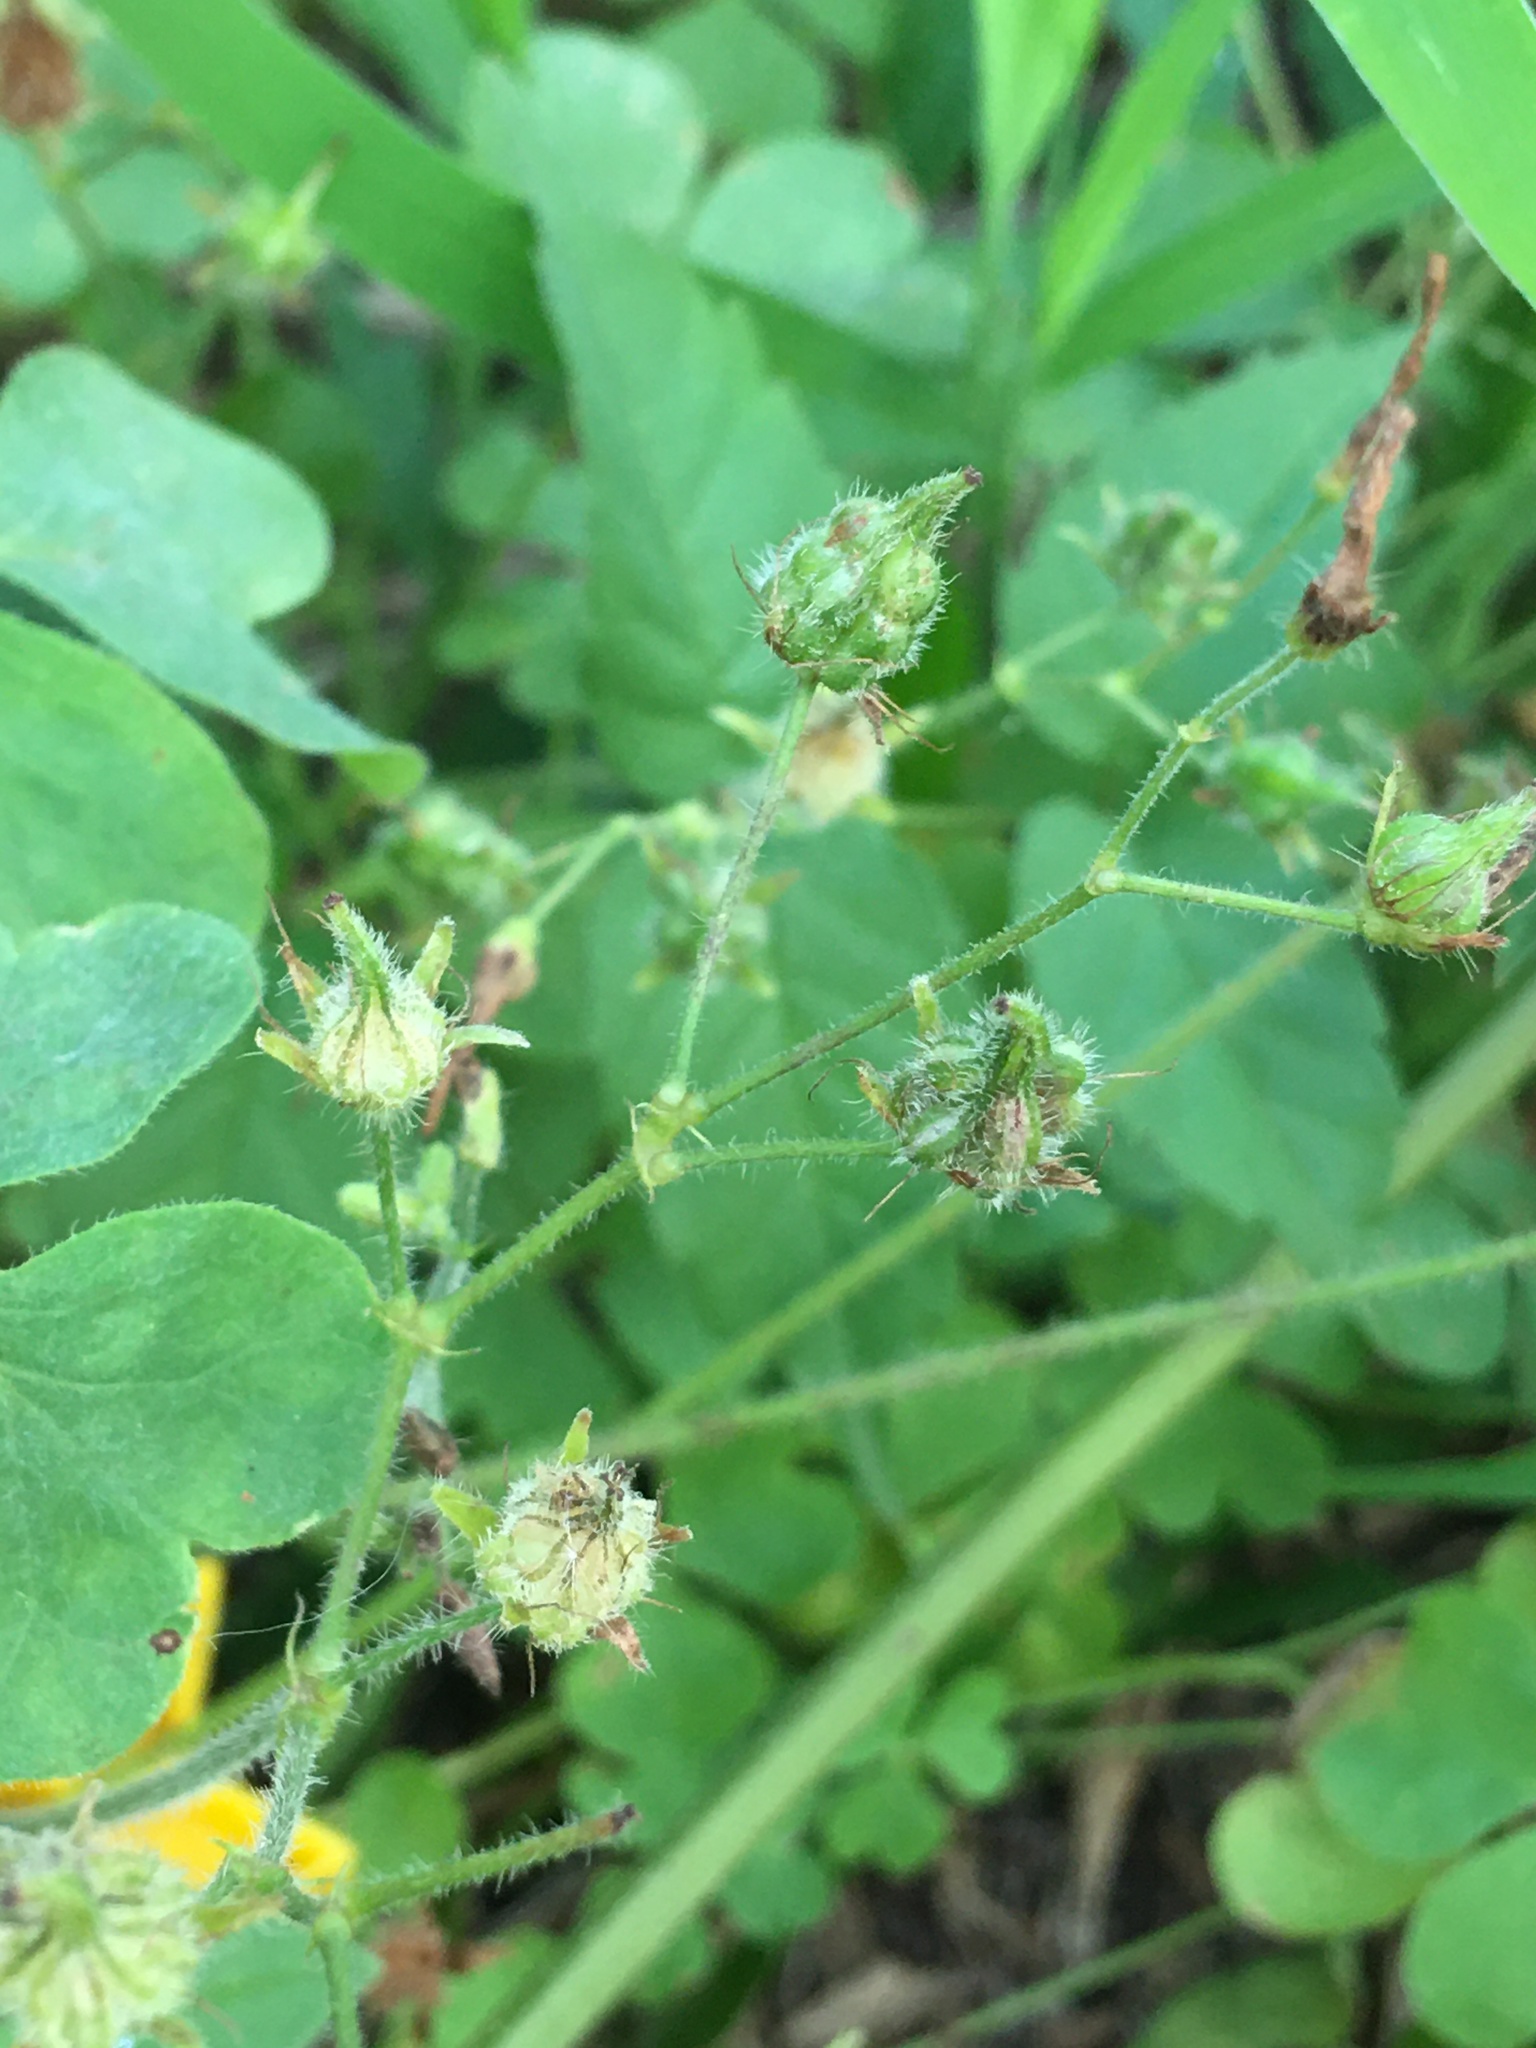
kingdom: Plantae
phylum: Tracheophyta
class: Magnoliopsida
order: Oxalidales
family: Oxalidaceae
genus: Oxalis
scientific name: Oxalis niederleinii
